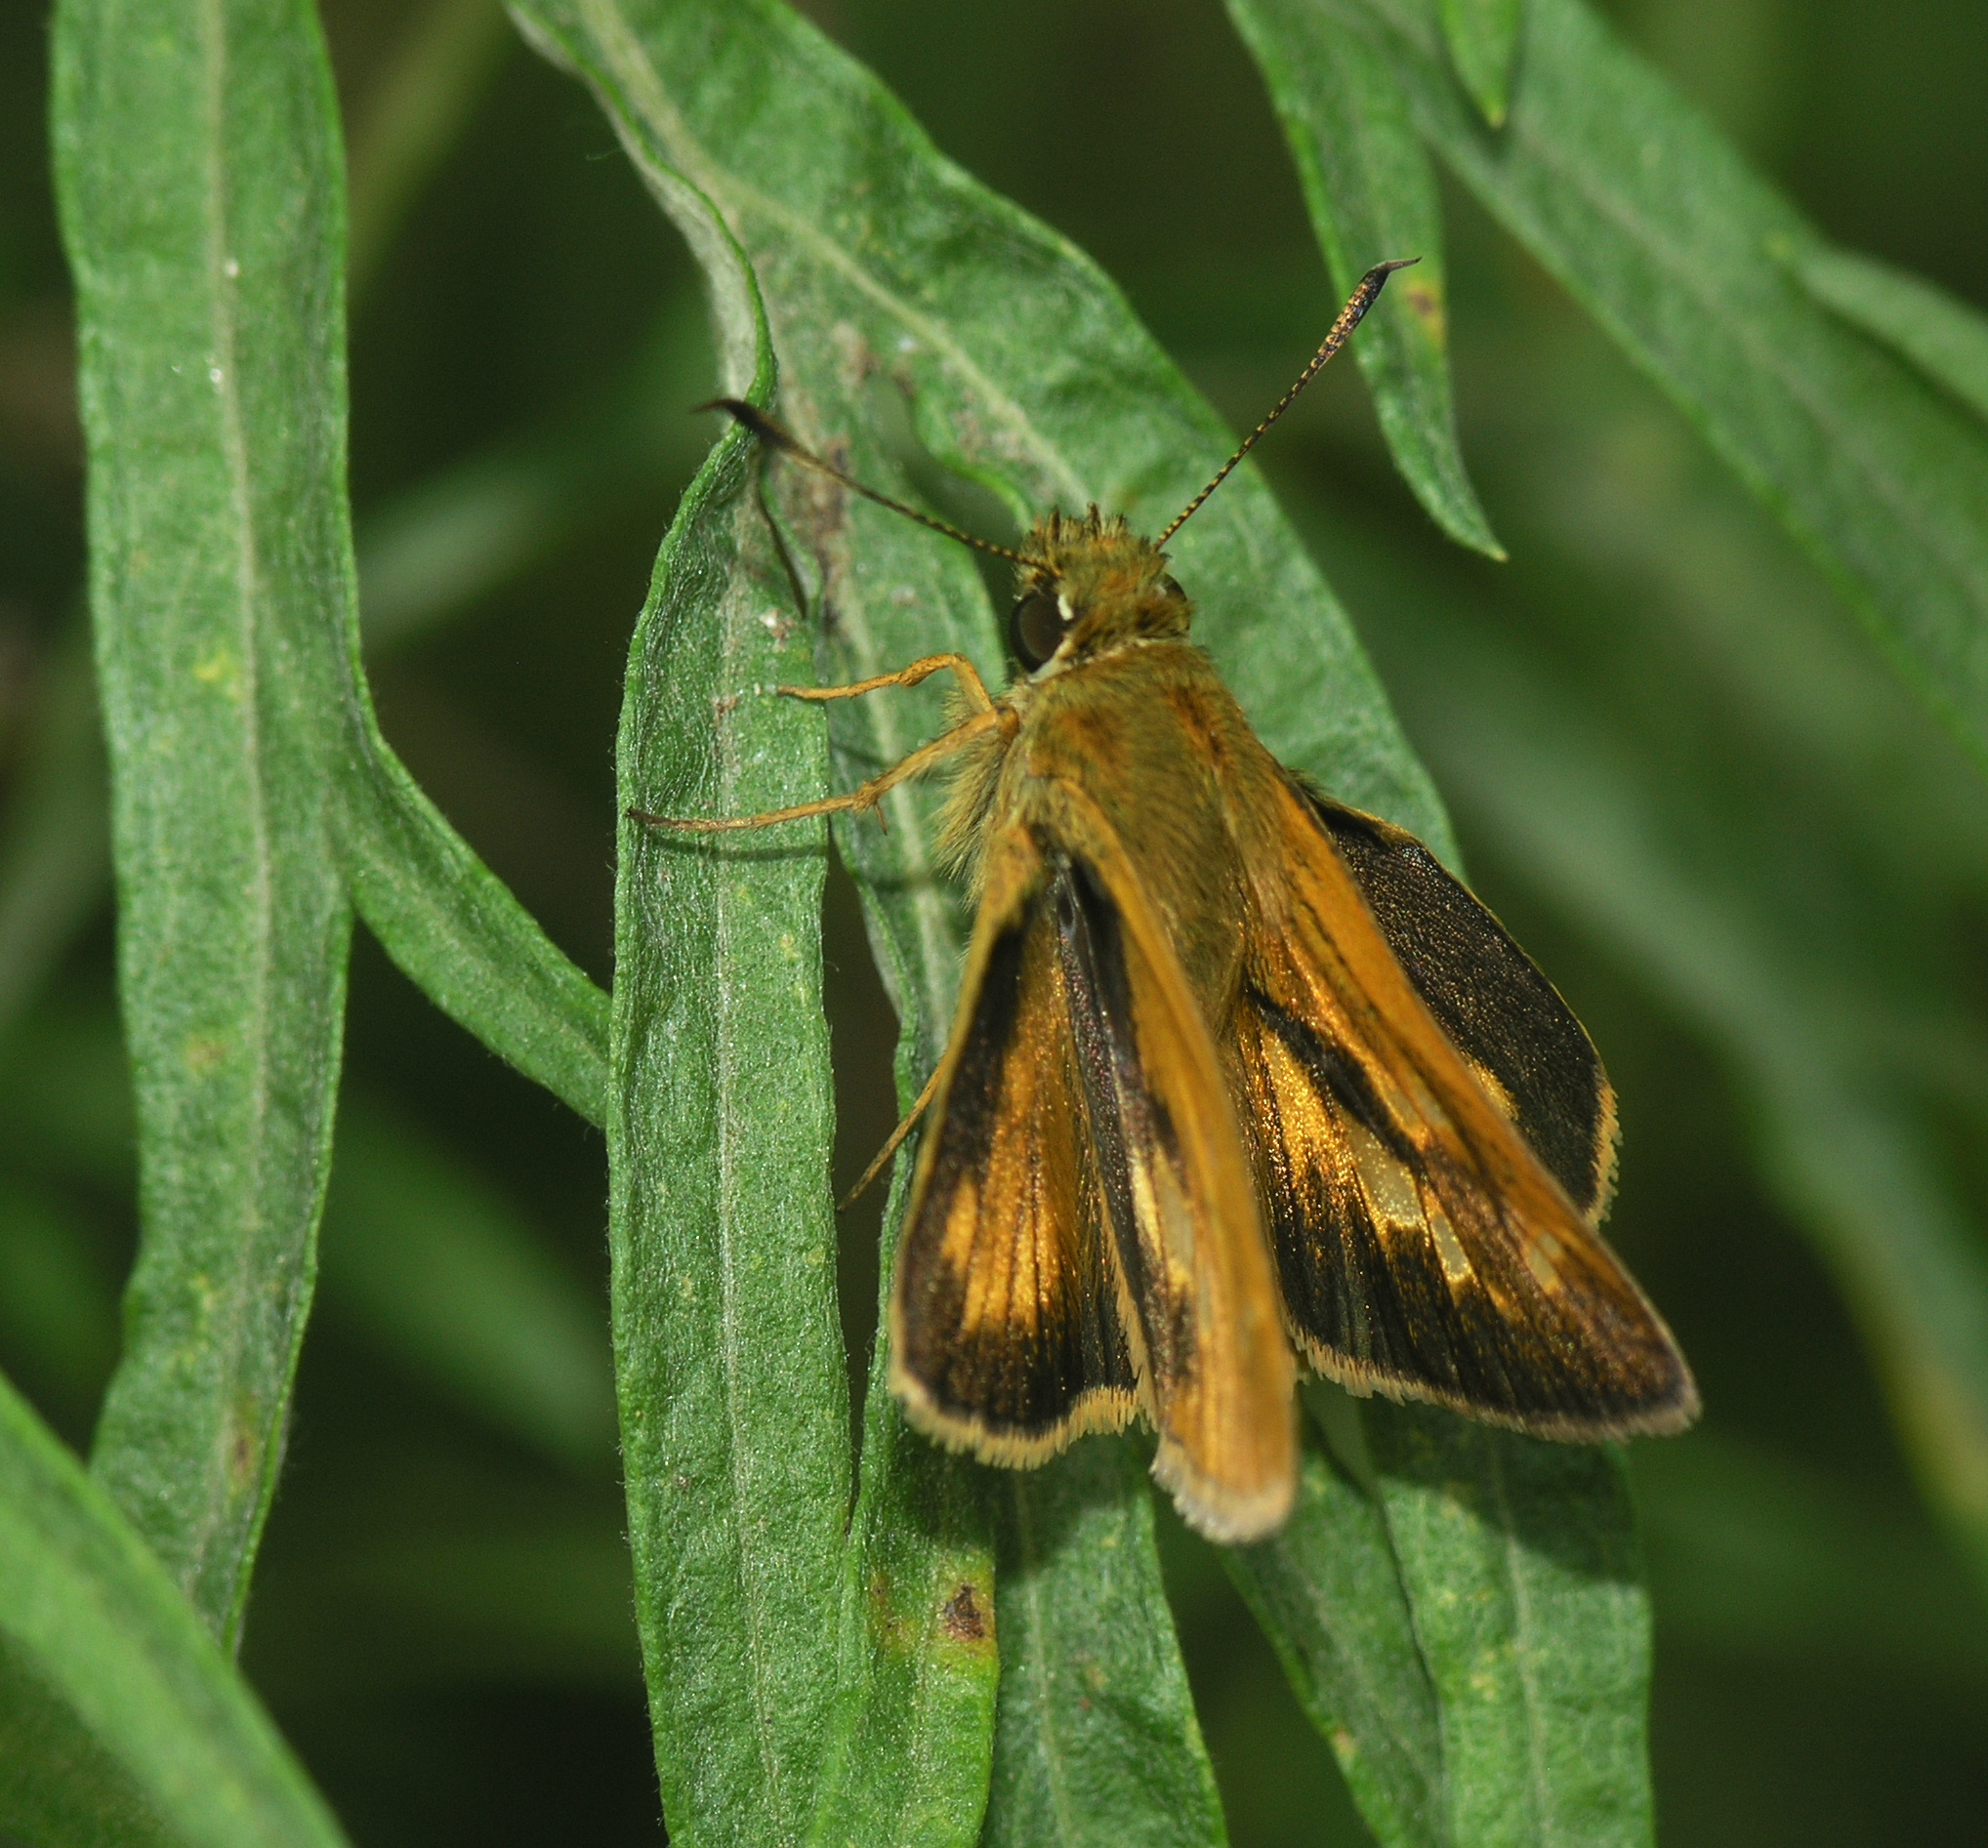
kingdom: Animalia
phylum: Arthropoda
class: Insecta
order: Lepidoptera
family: Hesperiidae
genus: Ochlodes
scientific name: Ochlodes subhyalina
